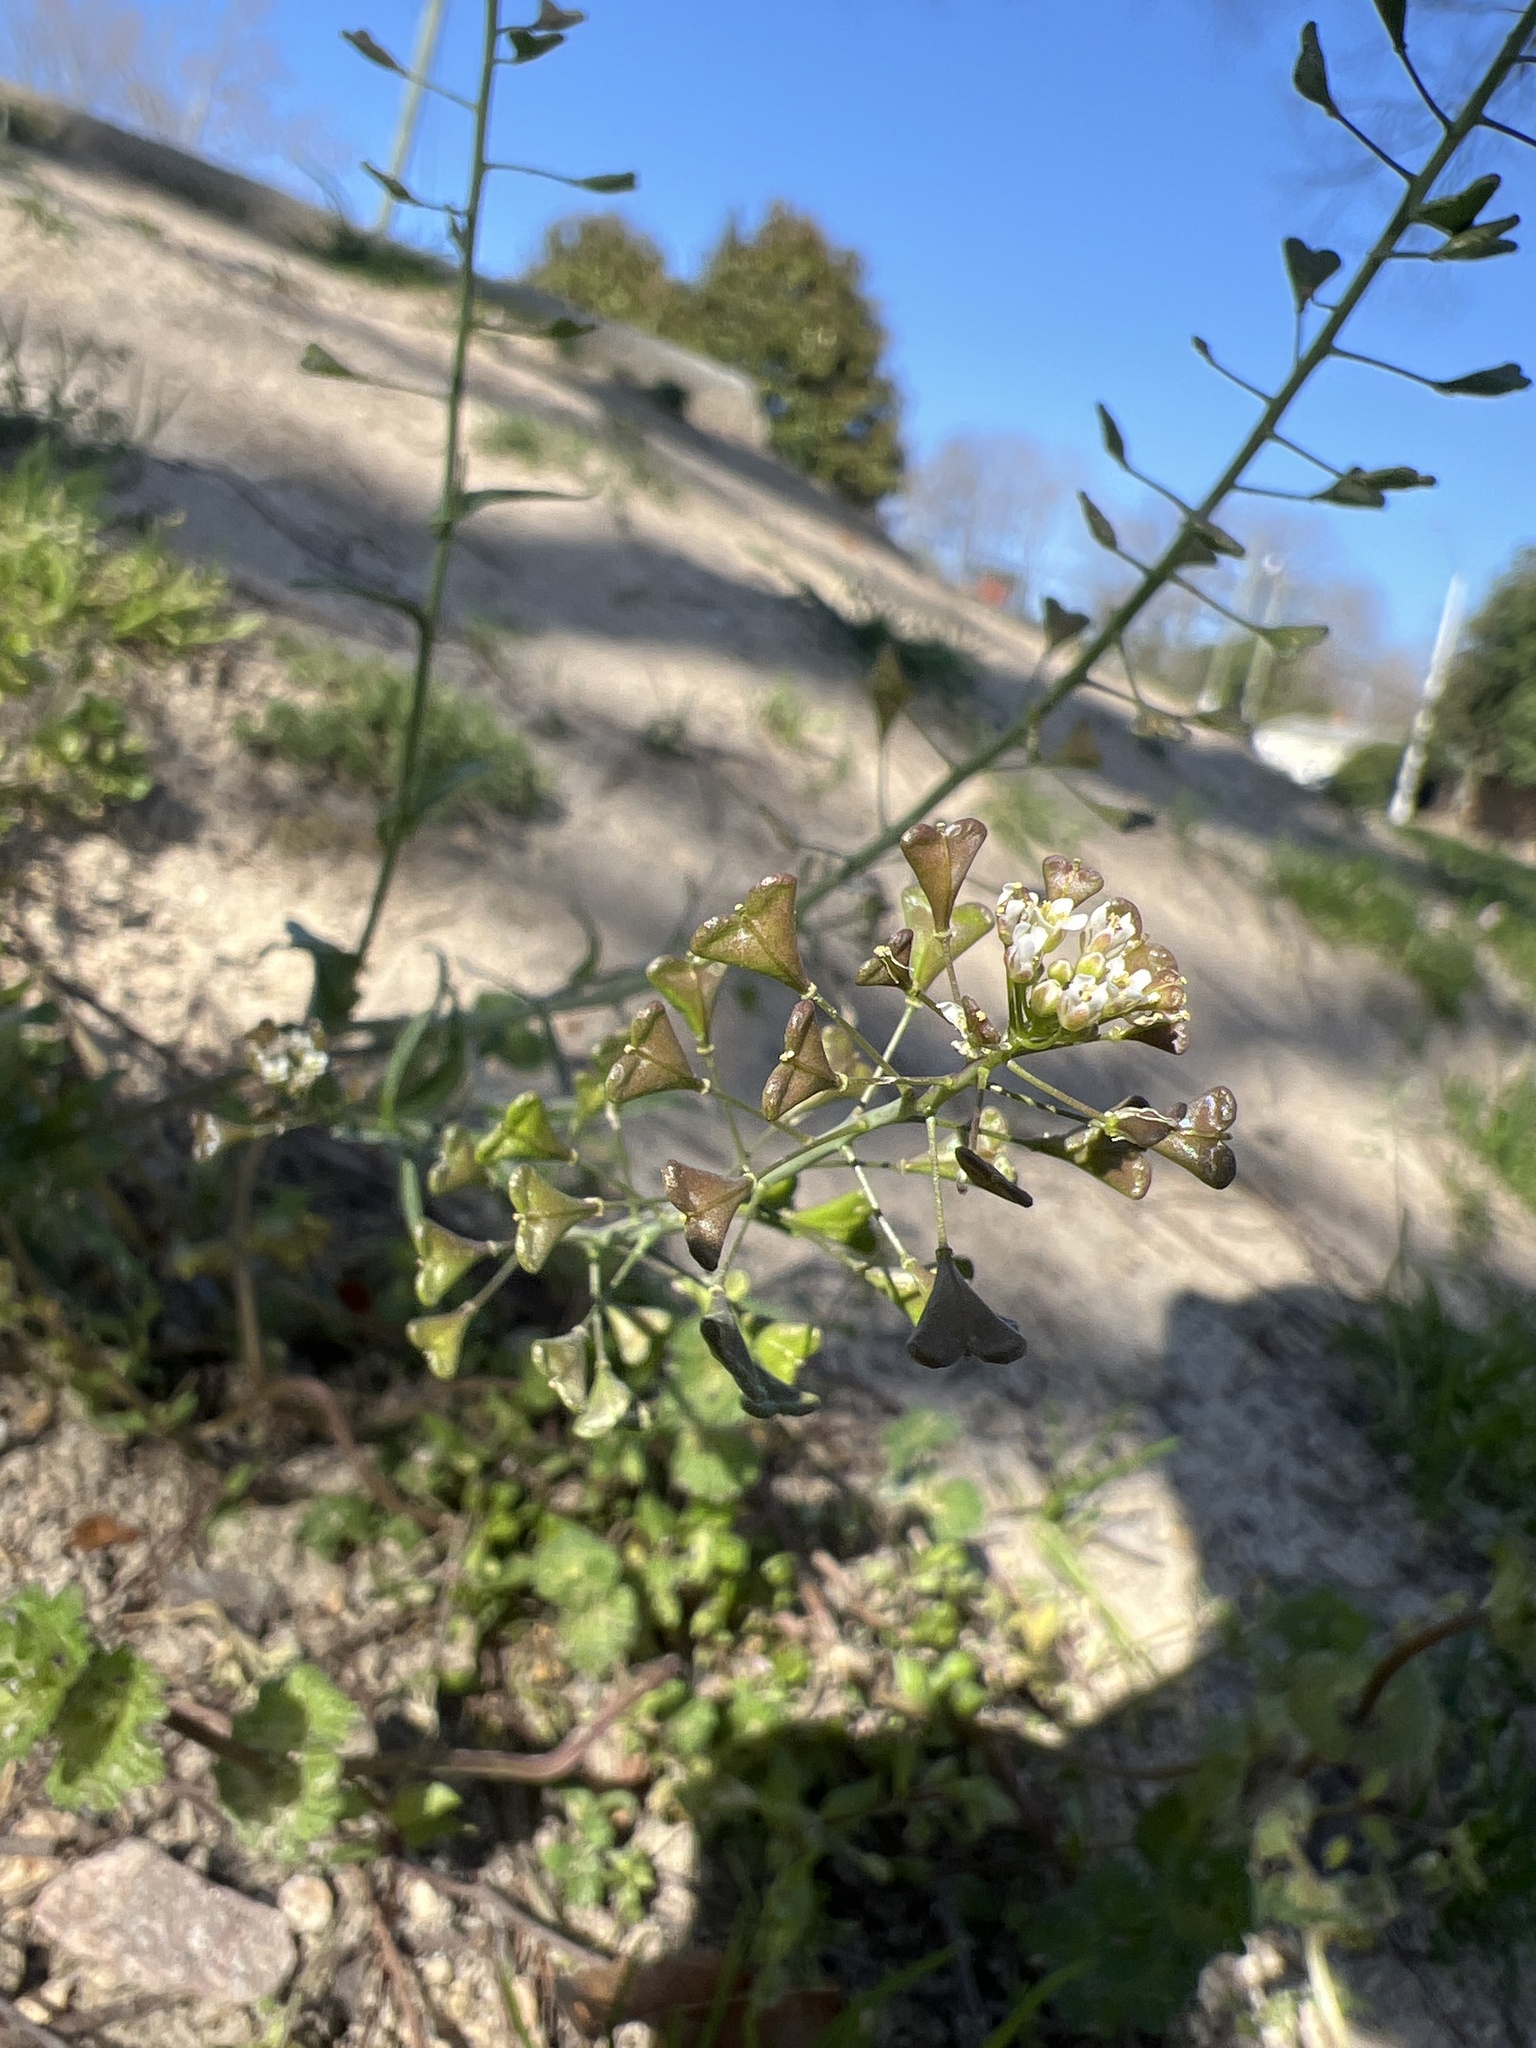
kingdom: Plantae
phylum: Tracheophyta
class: Magnoliopsida
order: Brassicales
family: Brassicaceae
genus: Capsella
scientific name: Capsella bursa-pastoris
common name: Shepherd's purse
